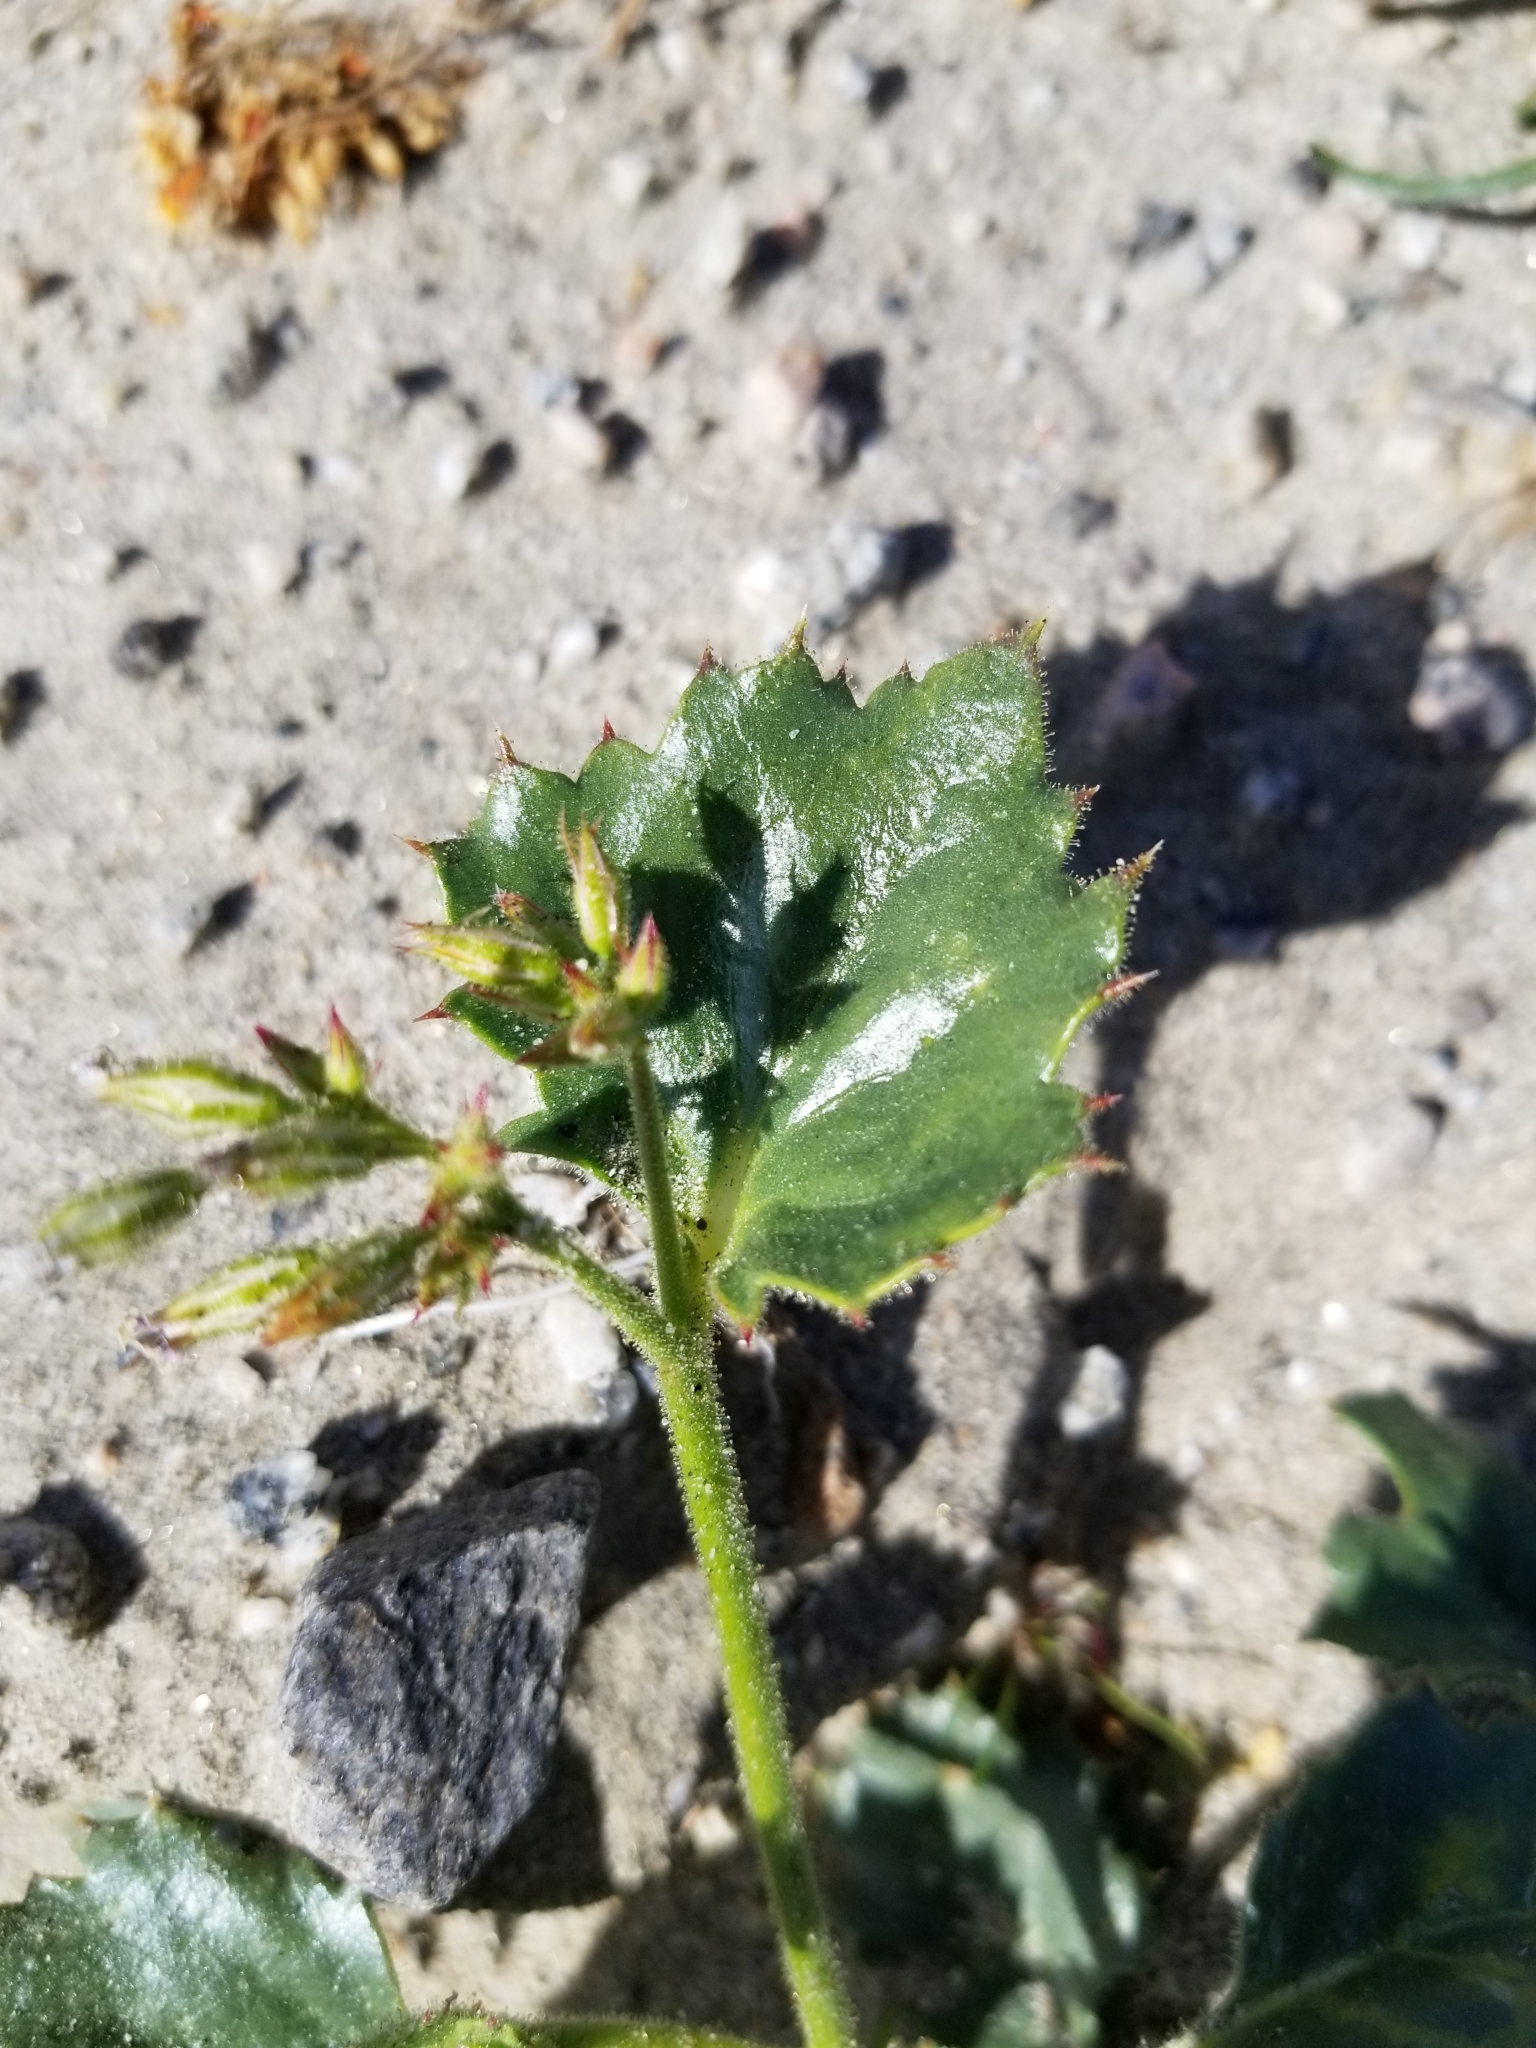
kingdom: Plantae
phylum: Tracheophyta
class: Magnoliopsida
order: Ericales
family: Polemoniaceae
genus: Aliciella
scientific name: Aliciella latifolia
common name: Broad-leaf gilia
